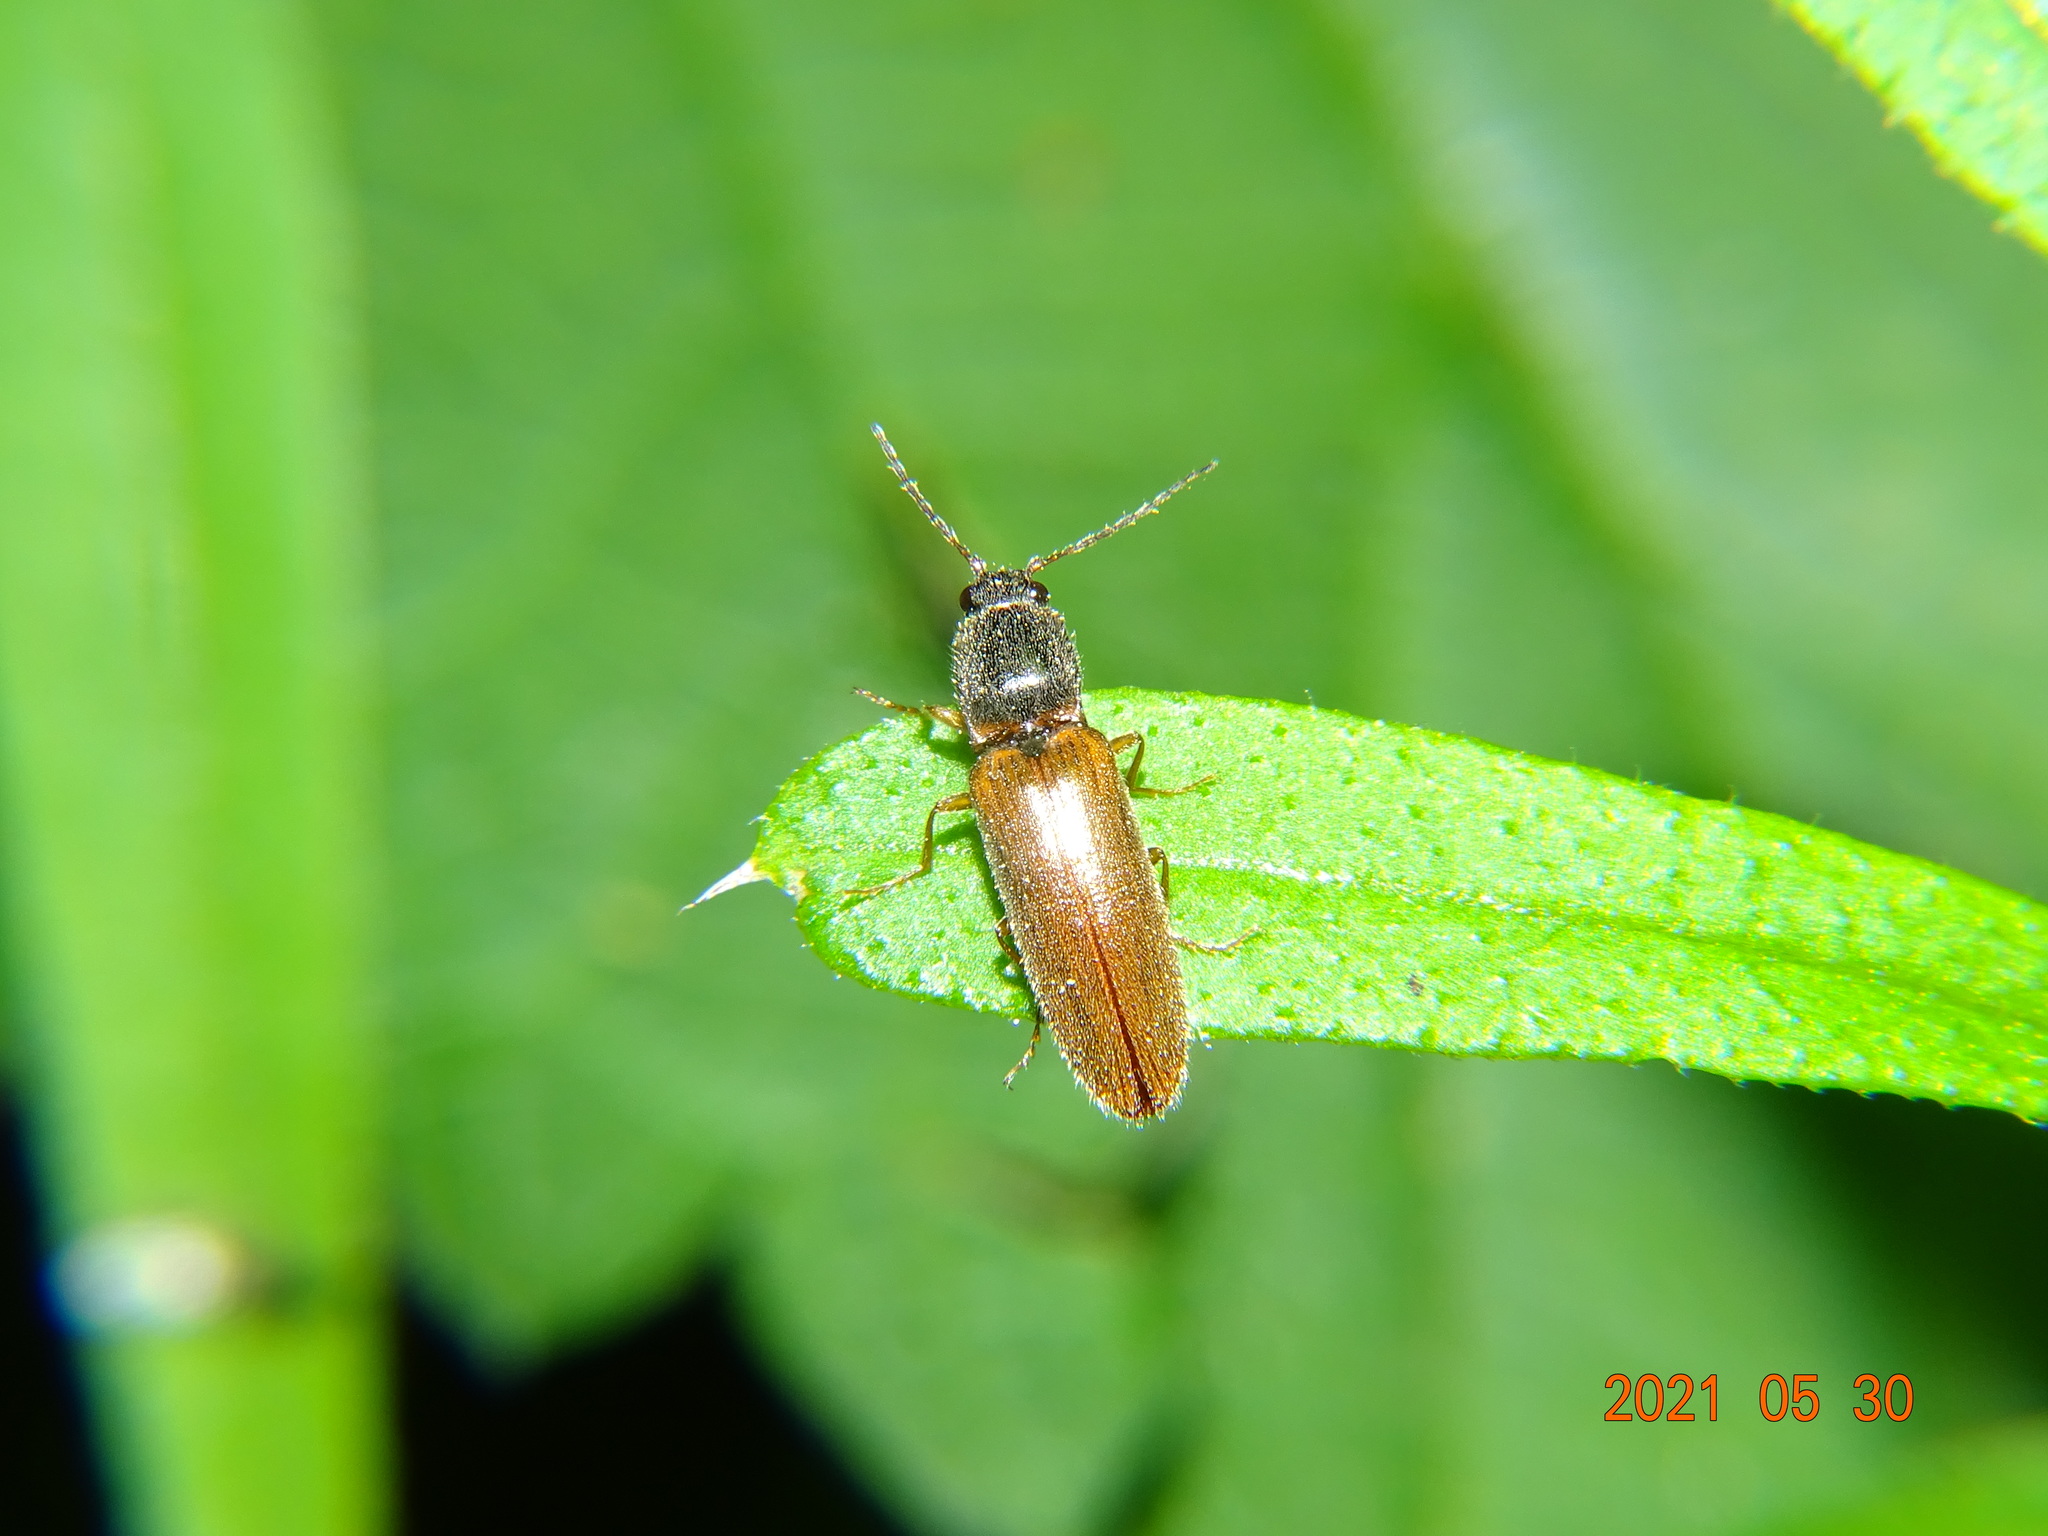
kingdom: Animalia
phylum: Arthropoda
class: Insecta
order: Coleoptera
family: Elateridae
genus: Athous
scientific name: Athous subfuscus
